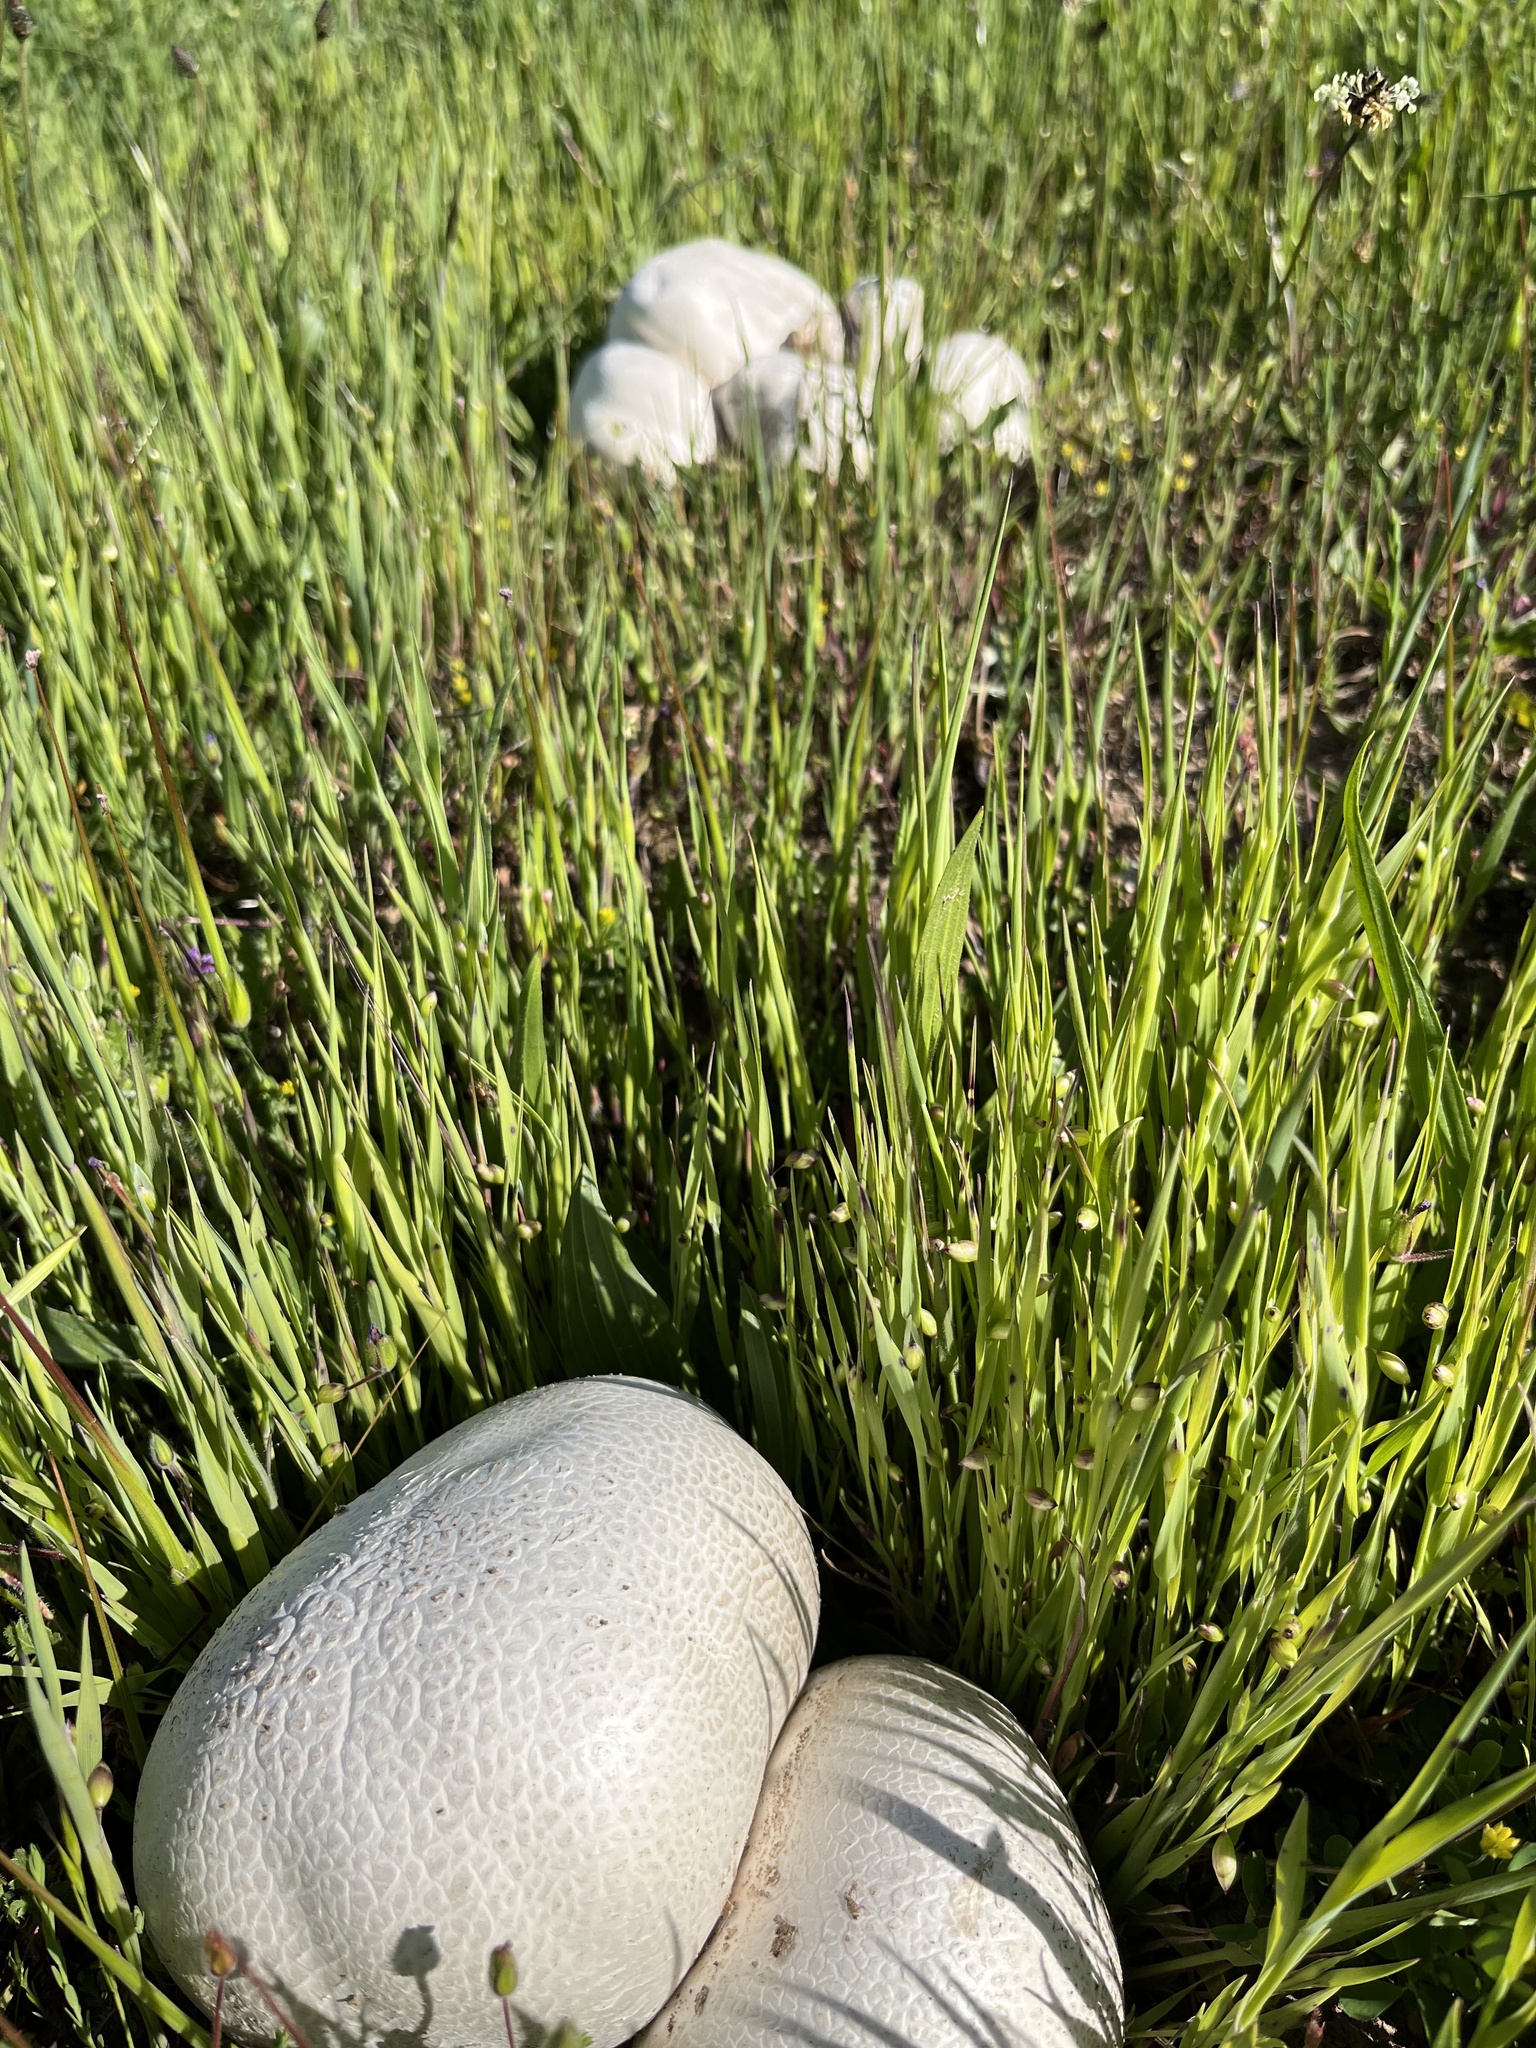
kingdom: Fungi
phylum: Basidiomycota
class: Agaricomycetes
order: Agaricales
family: Lycoperdaceae
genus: Calvatia
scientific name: Calvatia booniana
